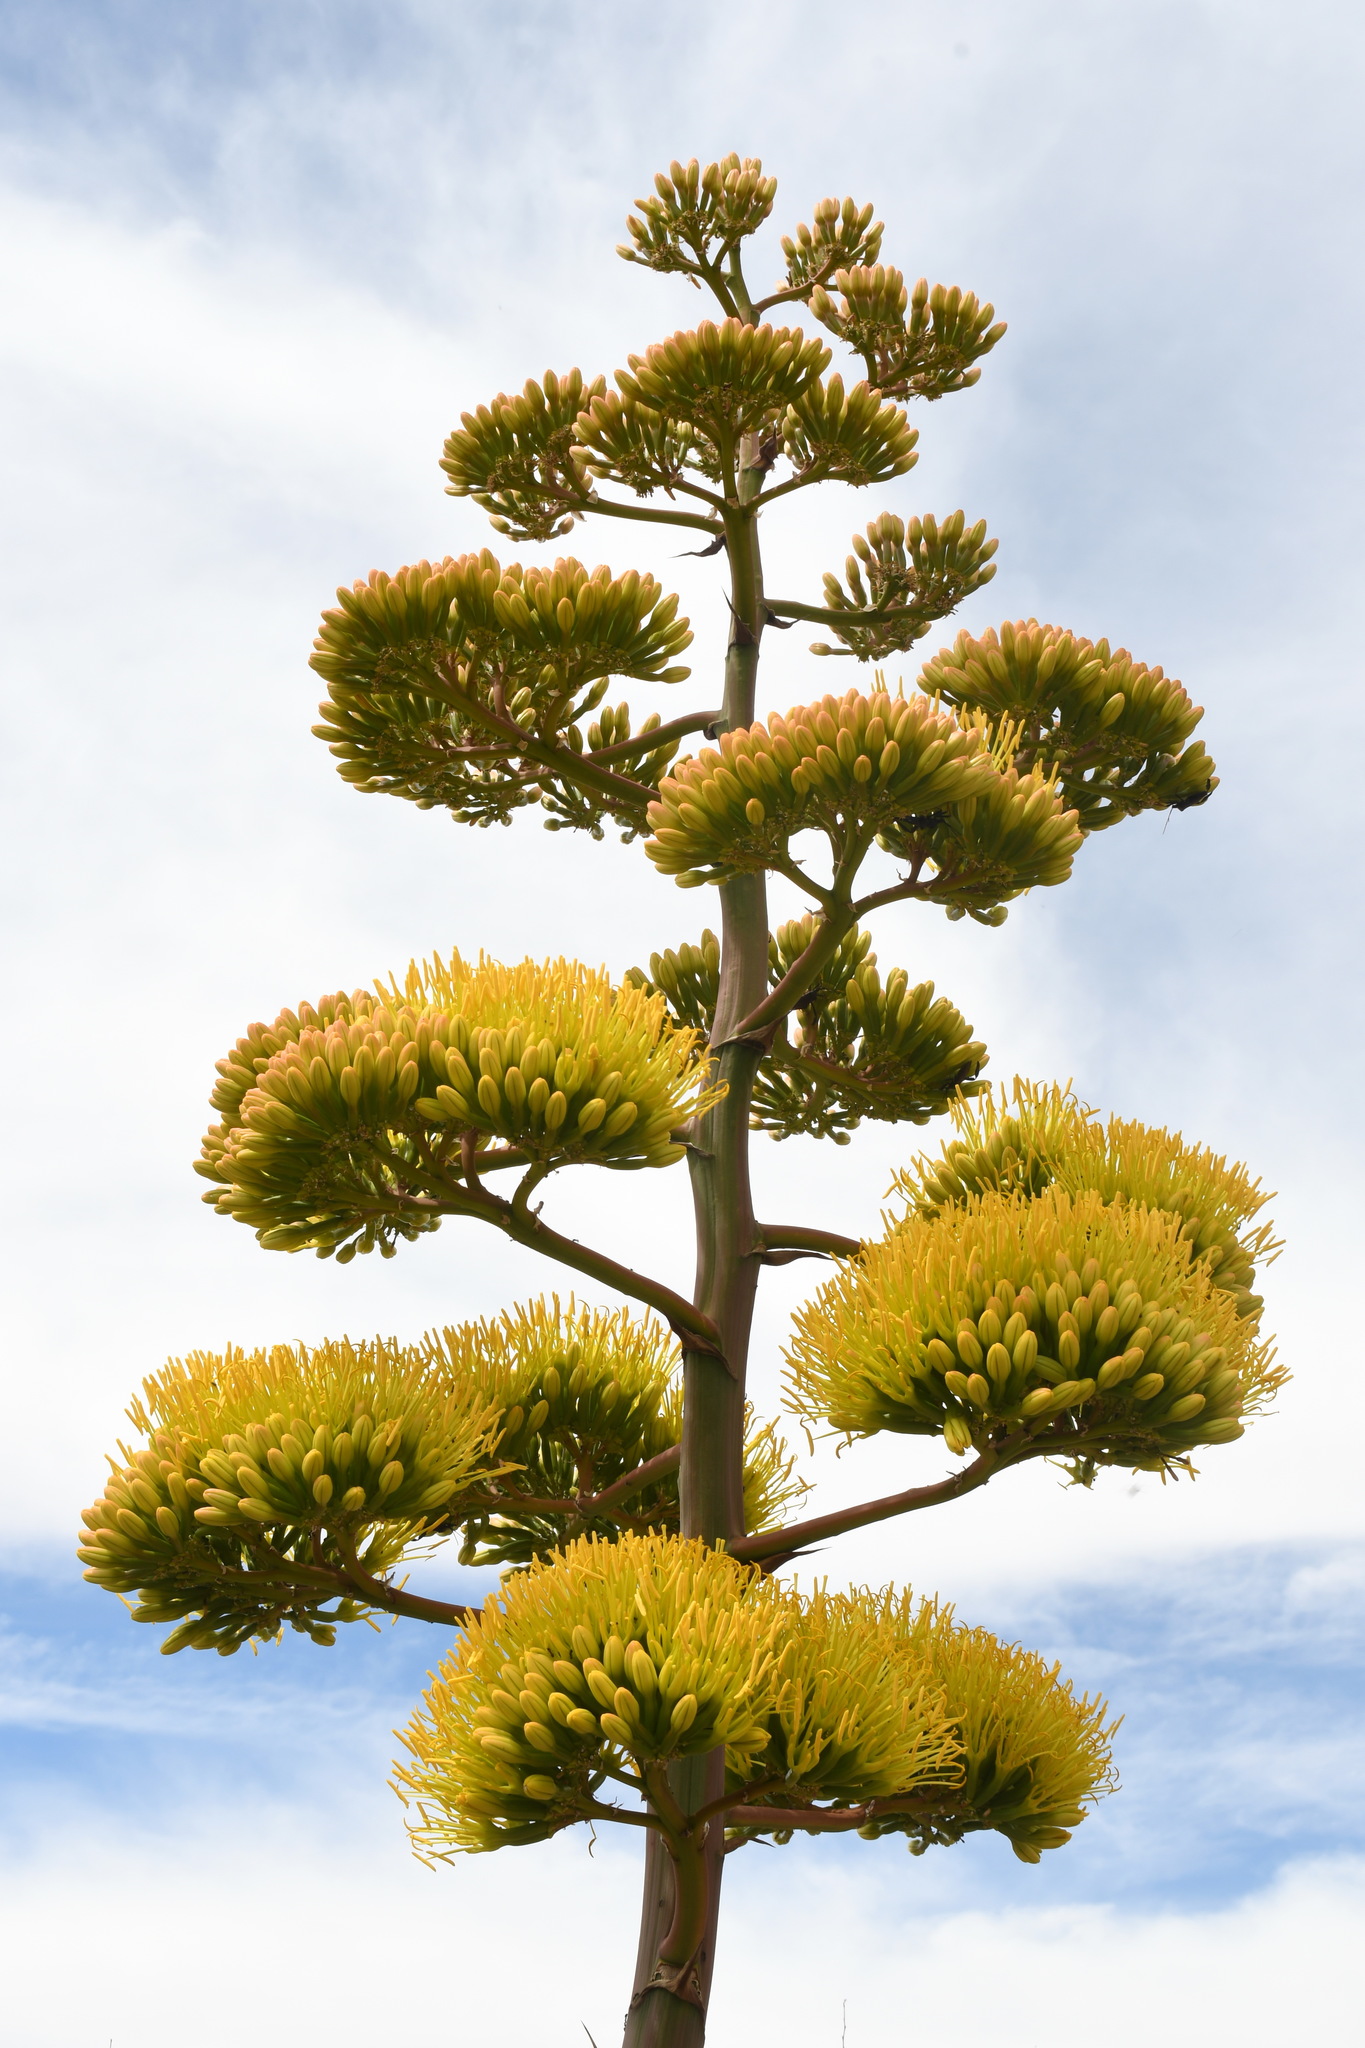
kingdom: Plantae
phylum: Tracheophyta
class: Liliopsida
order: Asparagales
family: Asparagaceae
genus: Agave
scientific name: Agave parryi
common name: Parry's agave
